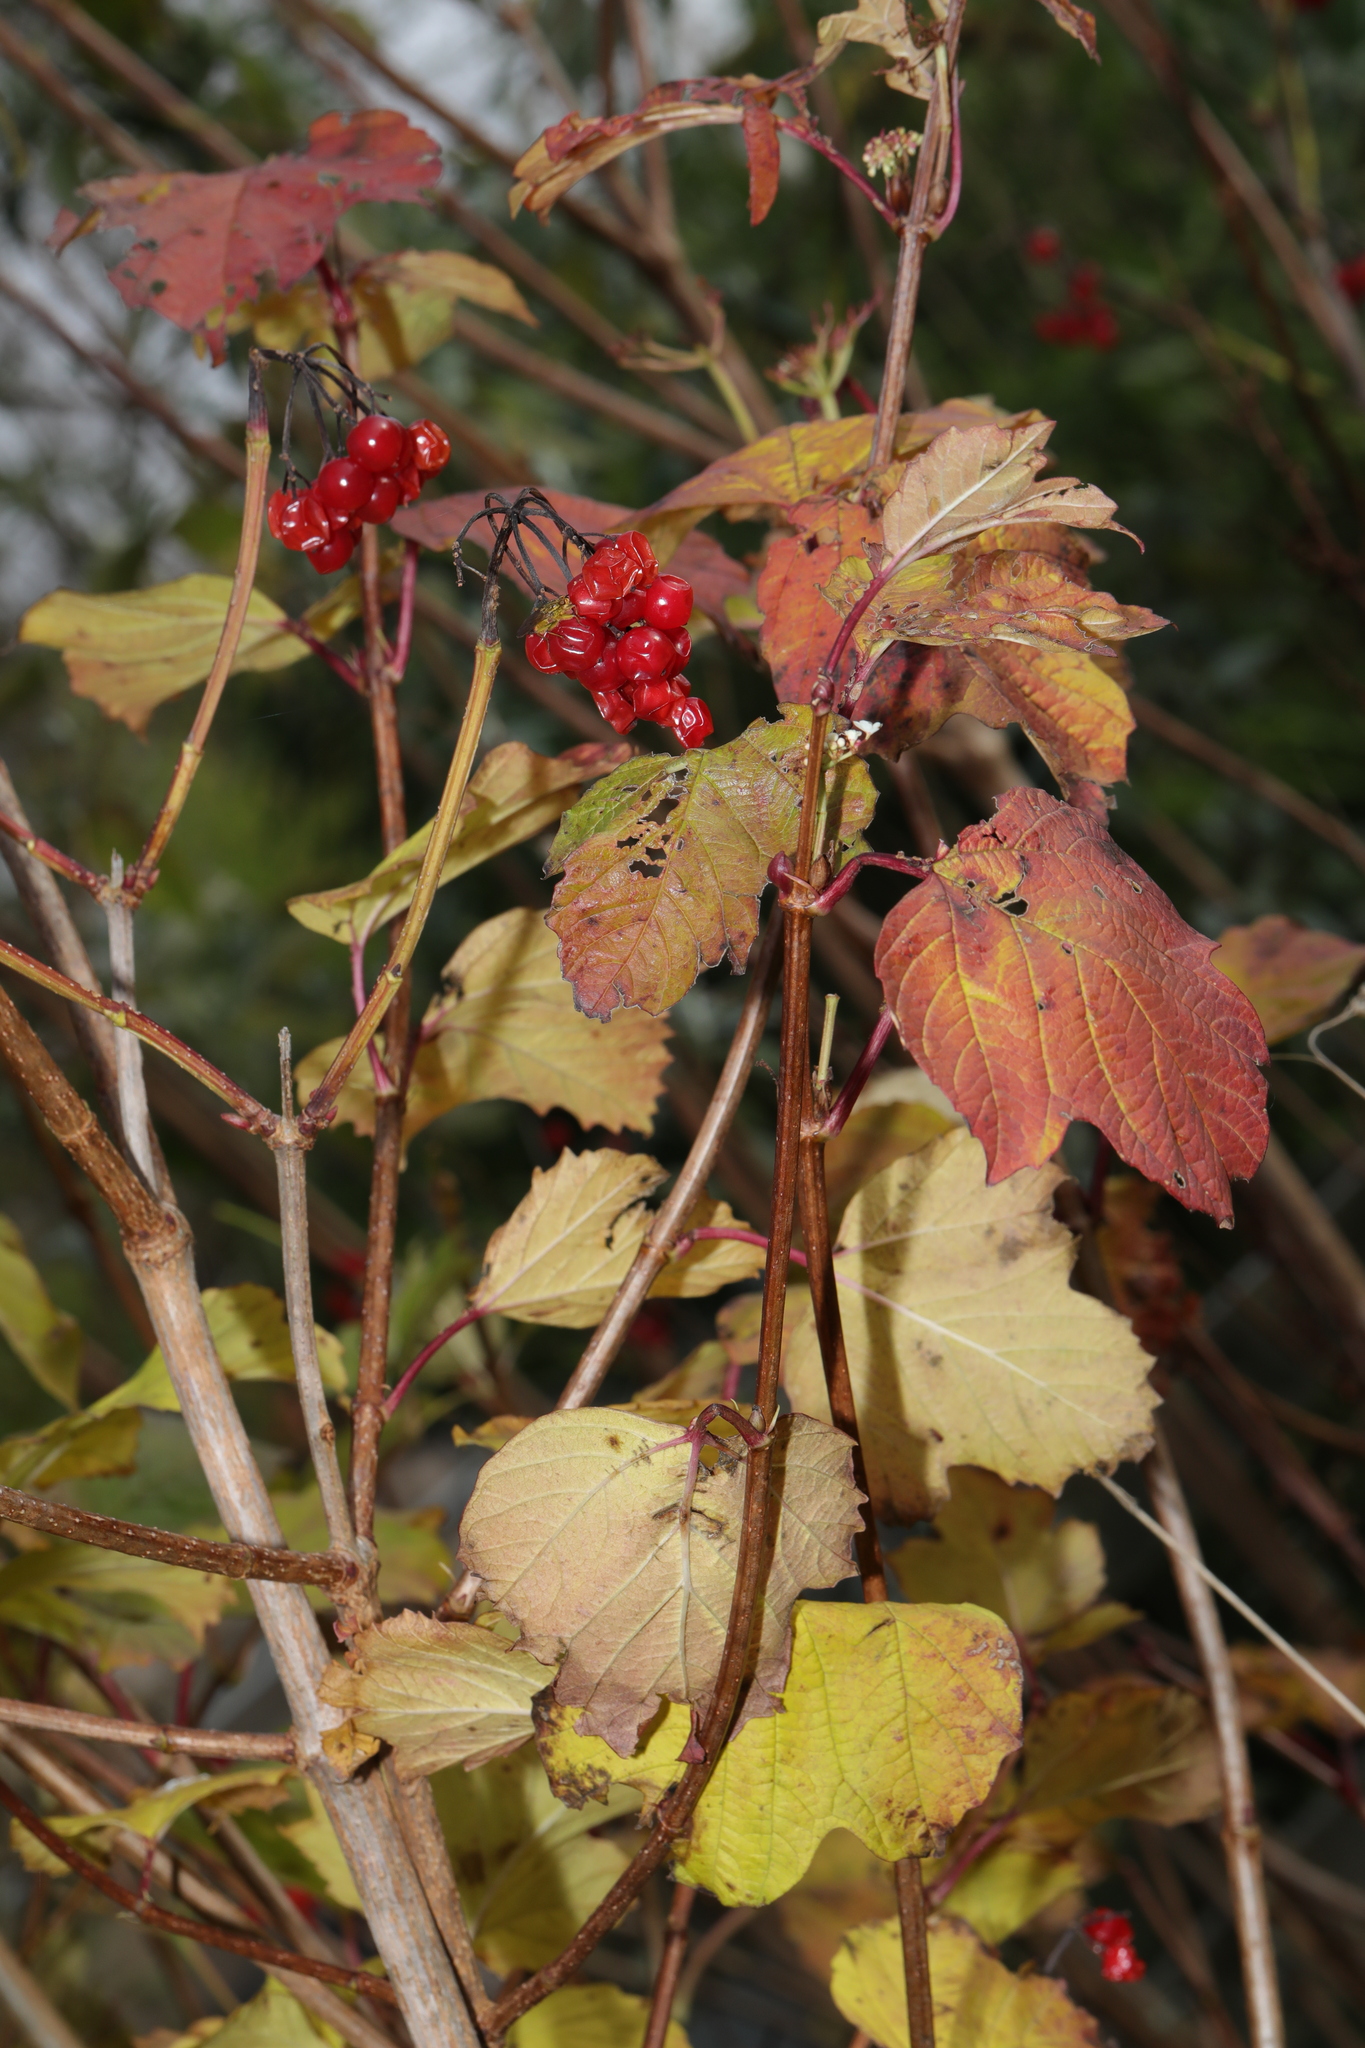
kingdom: Plantae
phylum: Tracheophyta
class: Magnoliopsida
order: Dipsacales
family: Viburnaceae
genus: Viburnum
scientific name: Viburnum opulus
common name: Guelder-rose
